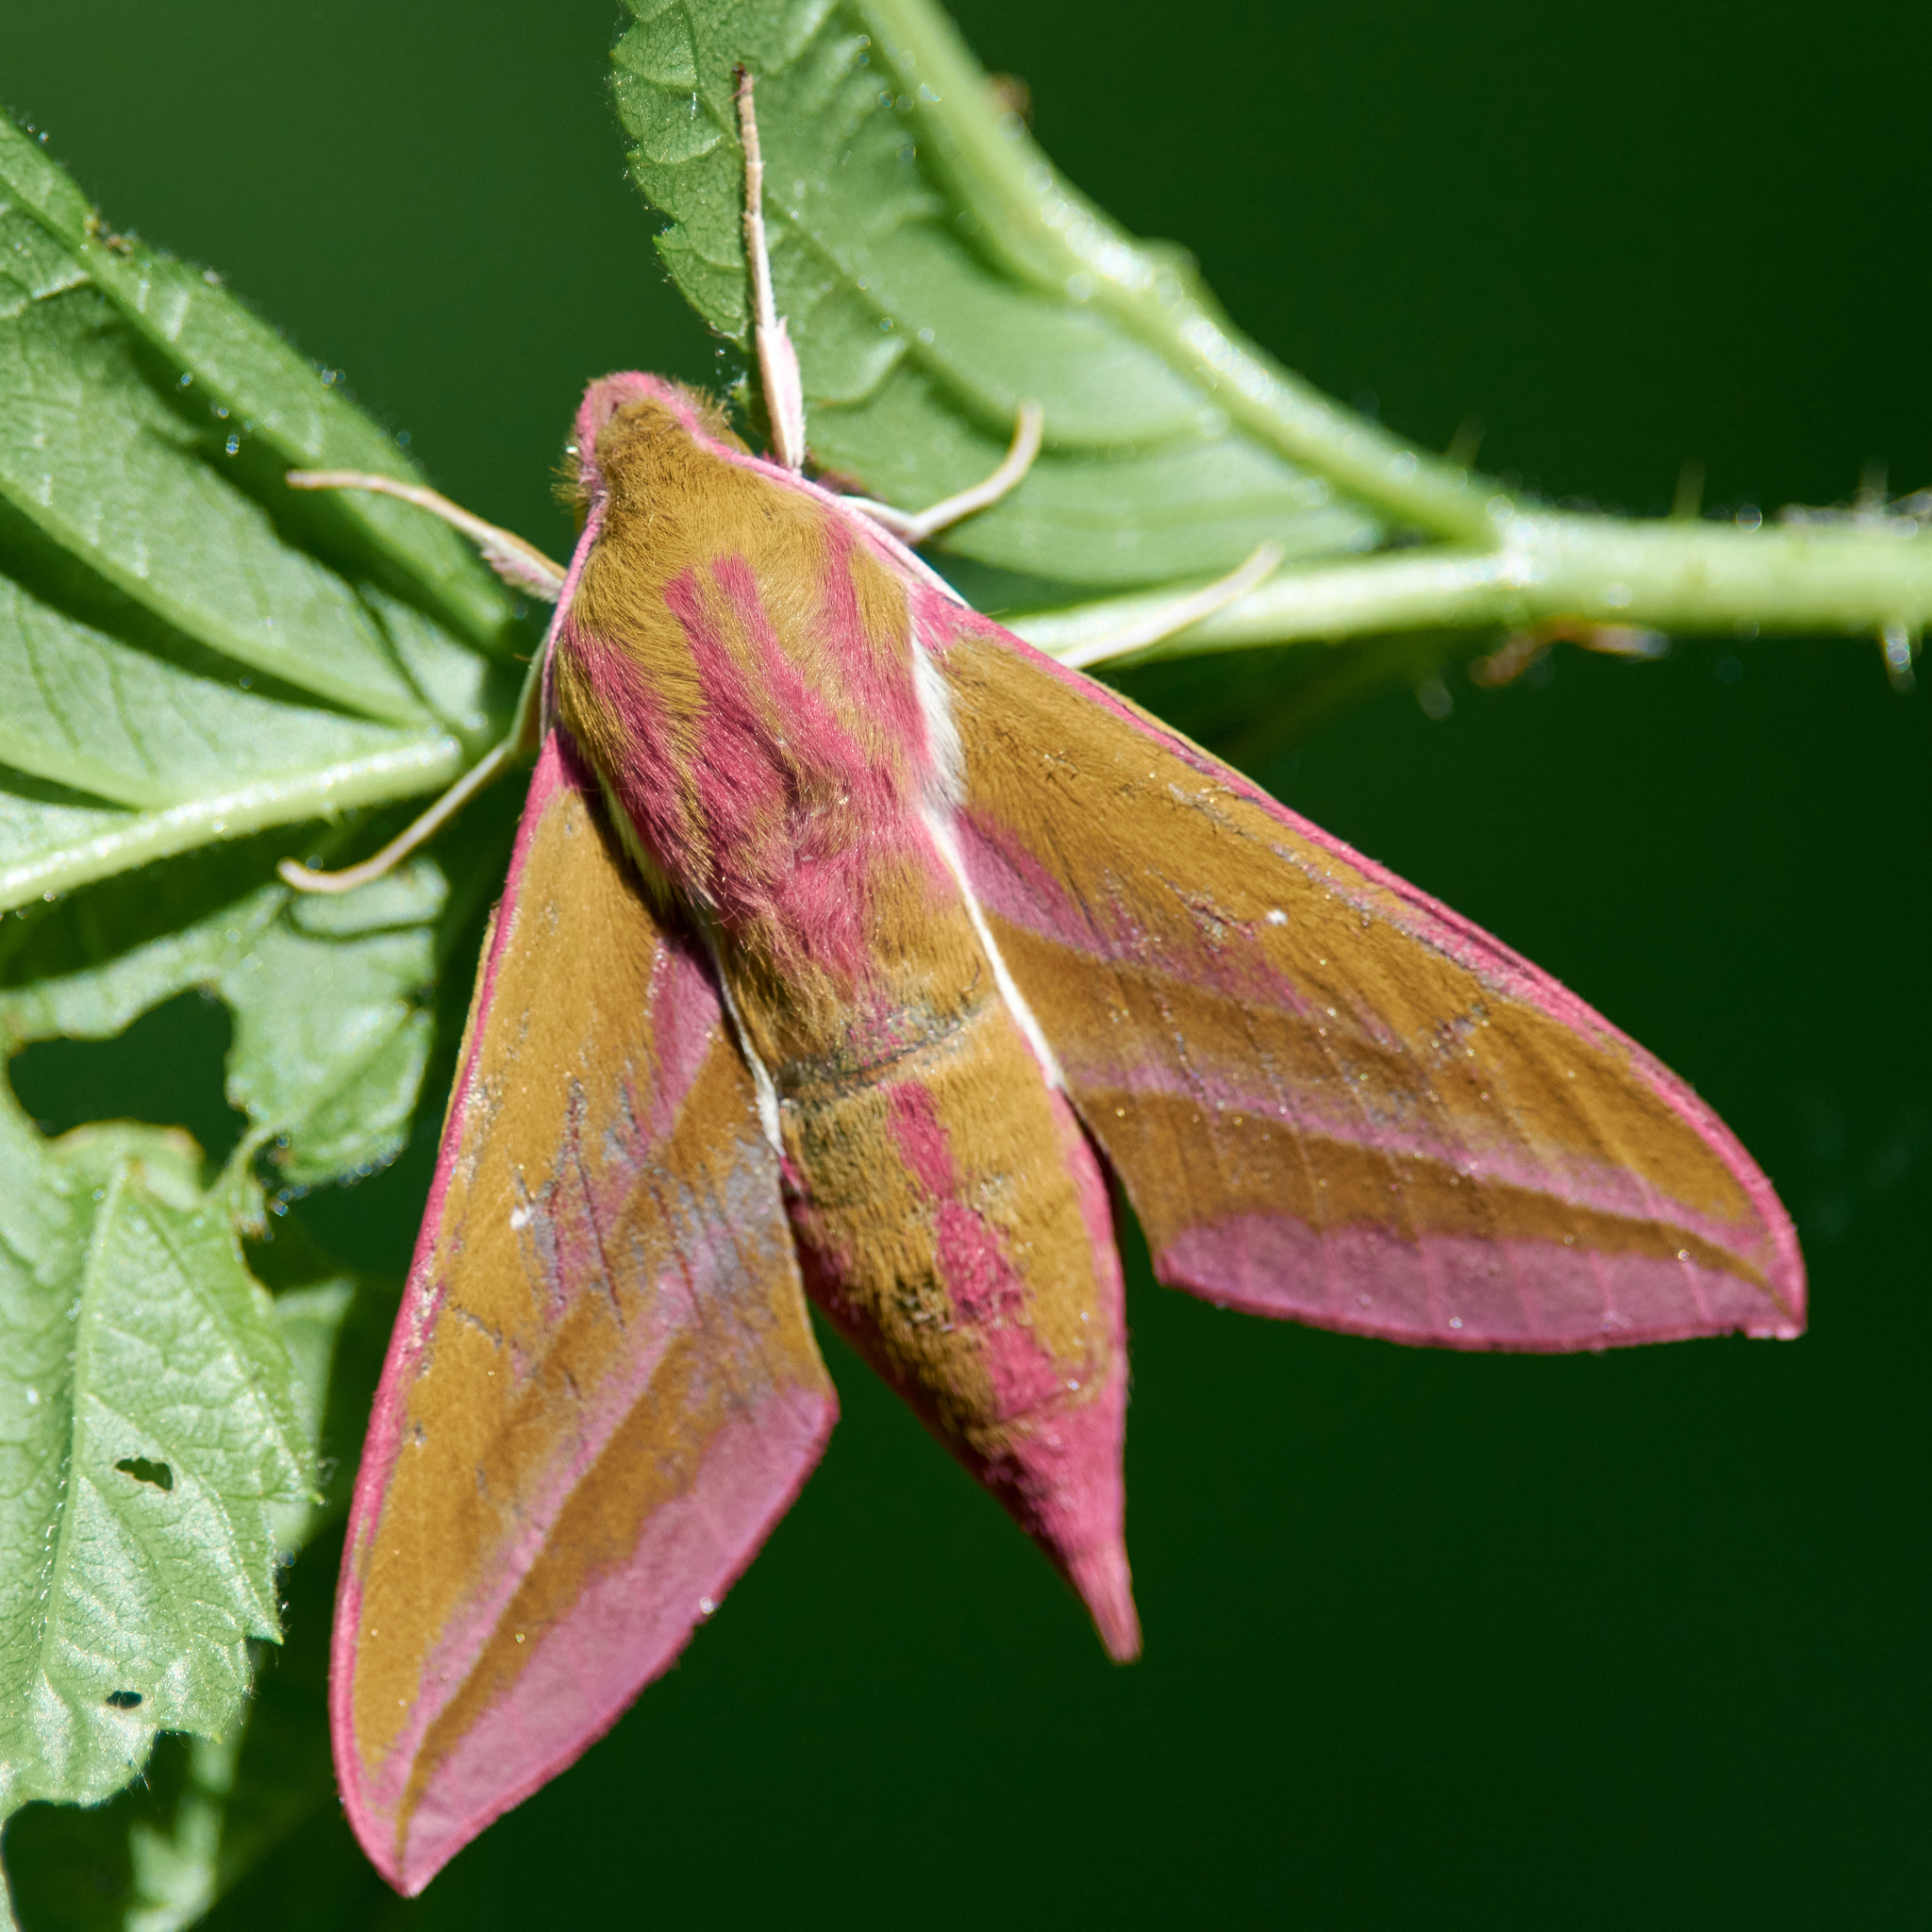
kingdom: Animalia
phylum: Arthropoda
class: Insecta
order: Lepidoptera
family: Sphingidae
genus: Deilephila
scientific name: Deilephila elpenor
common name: Elephant hawk-moth
